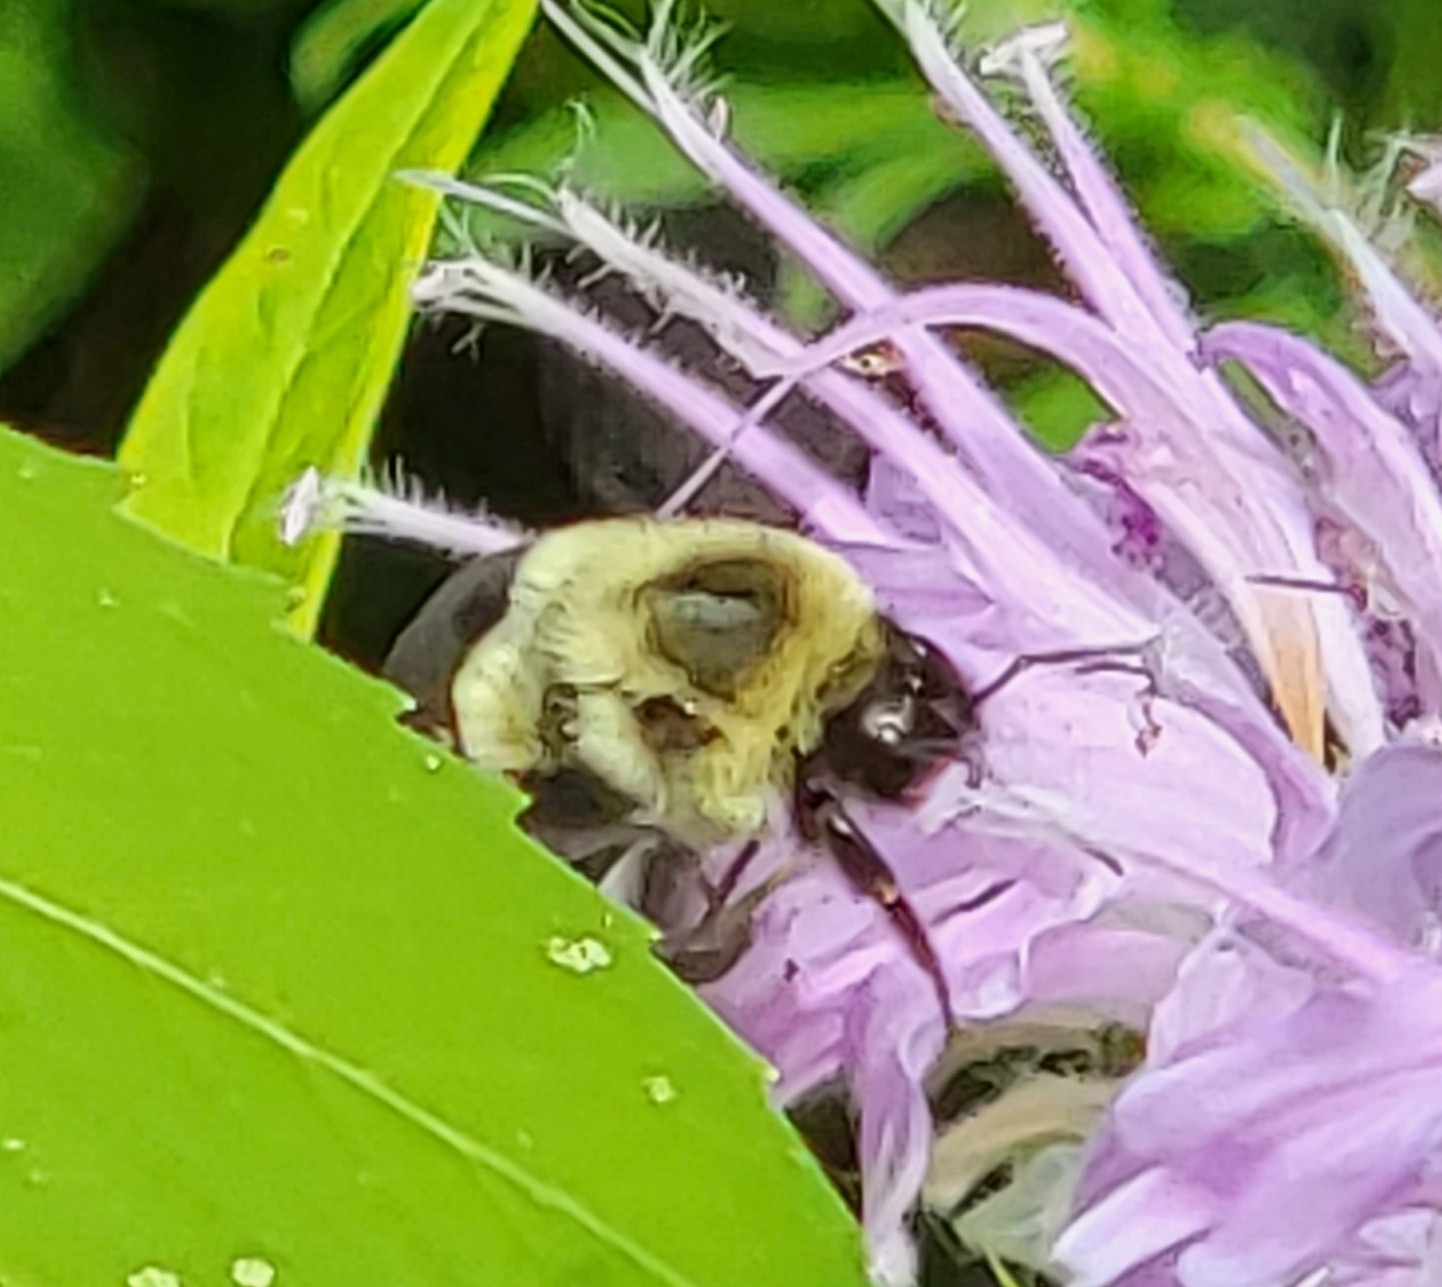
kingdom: Animalia
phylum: Arthropoda
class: Insecta
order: Hymenoptera
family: Apidae
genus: Bombus
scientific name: Bombus impatiens
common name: Common eastern bumble bee
